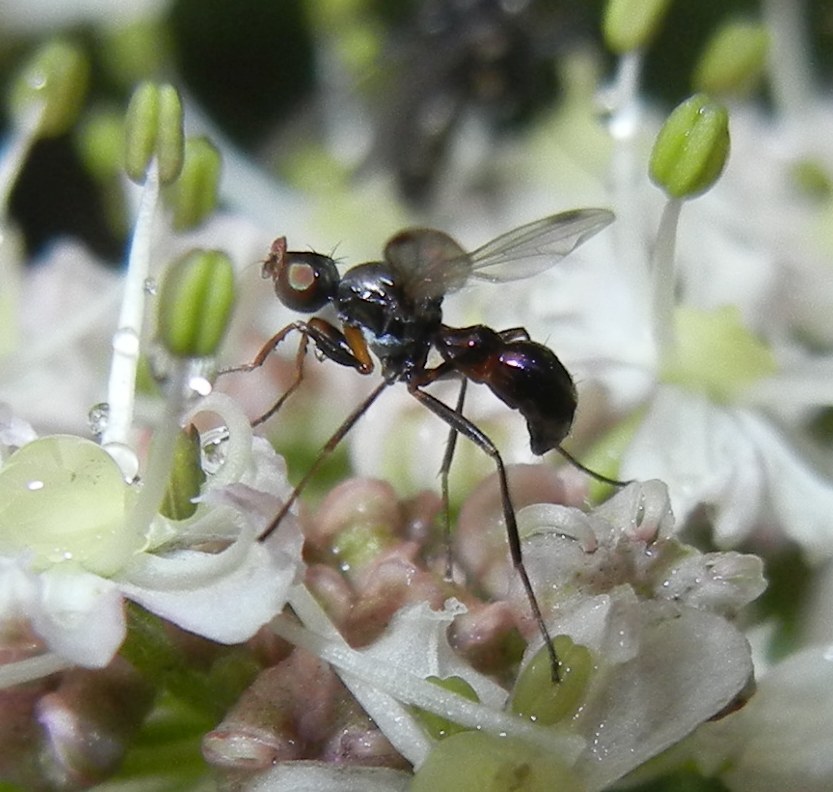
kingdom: Animalia
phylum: Arthropoda
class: Insecta
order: Diptera
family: Sepsidae
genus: Sepsis
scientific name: Sepsis cynipsea
